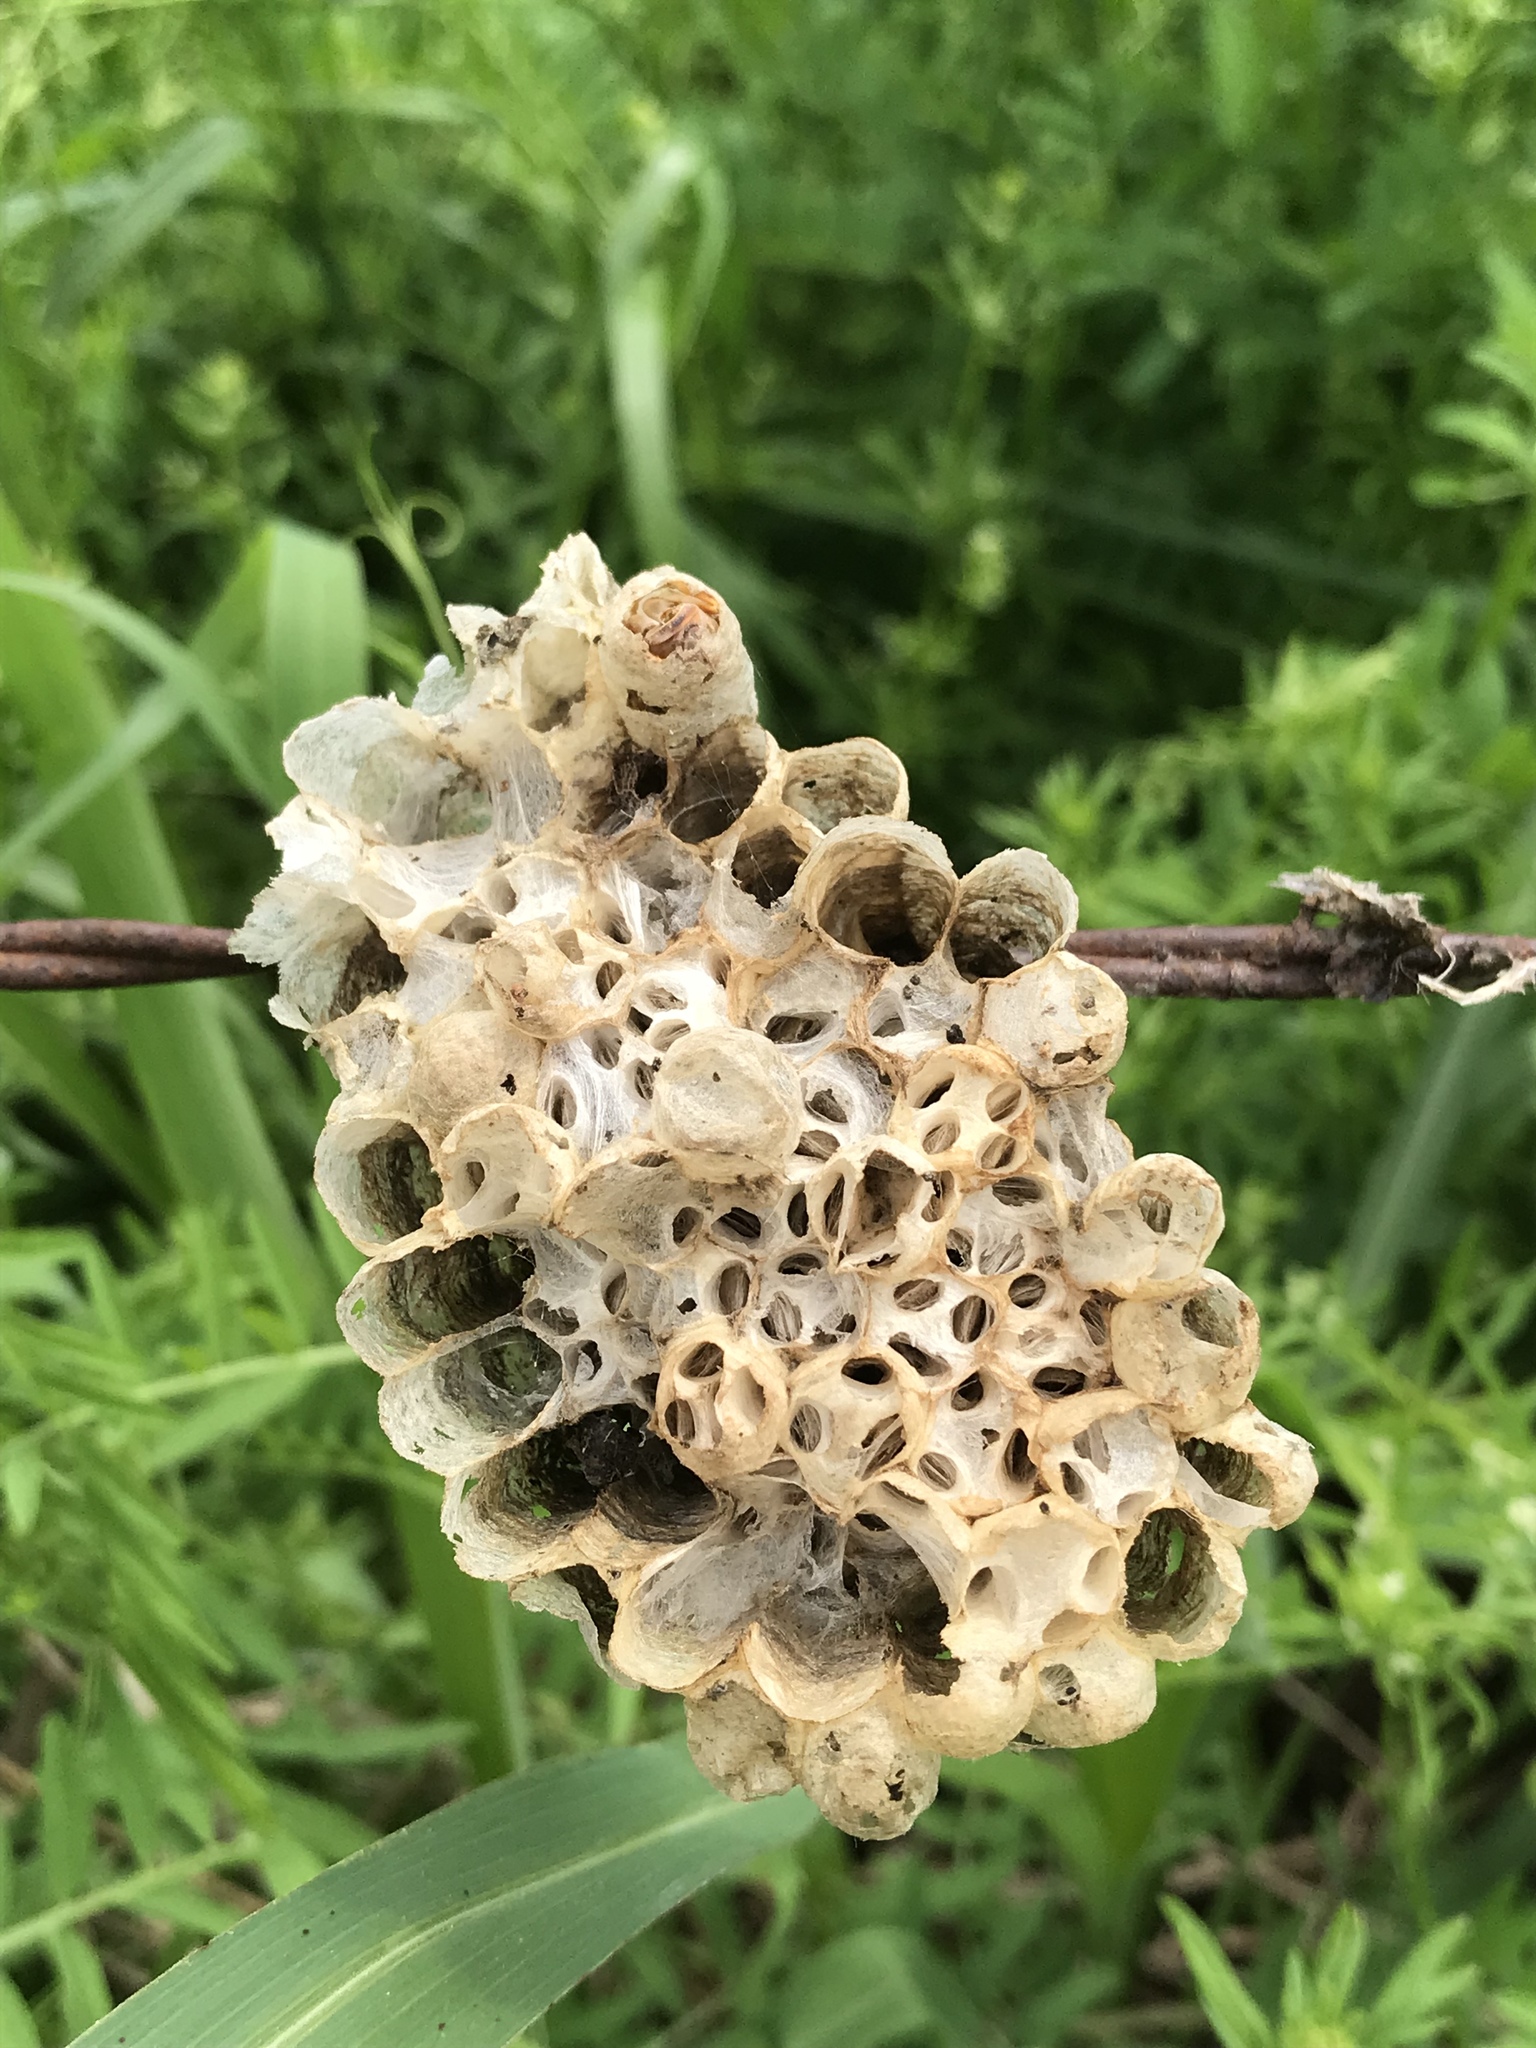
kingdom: Animalia
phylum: Arthropoda
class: Insecta
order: Hymenoptera
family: Eumenidae
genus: Polistes
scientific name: Polistes
